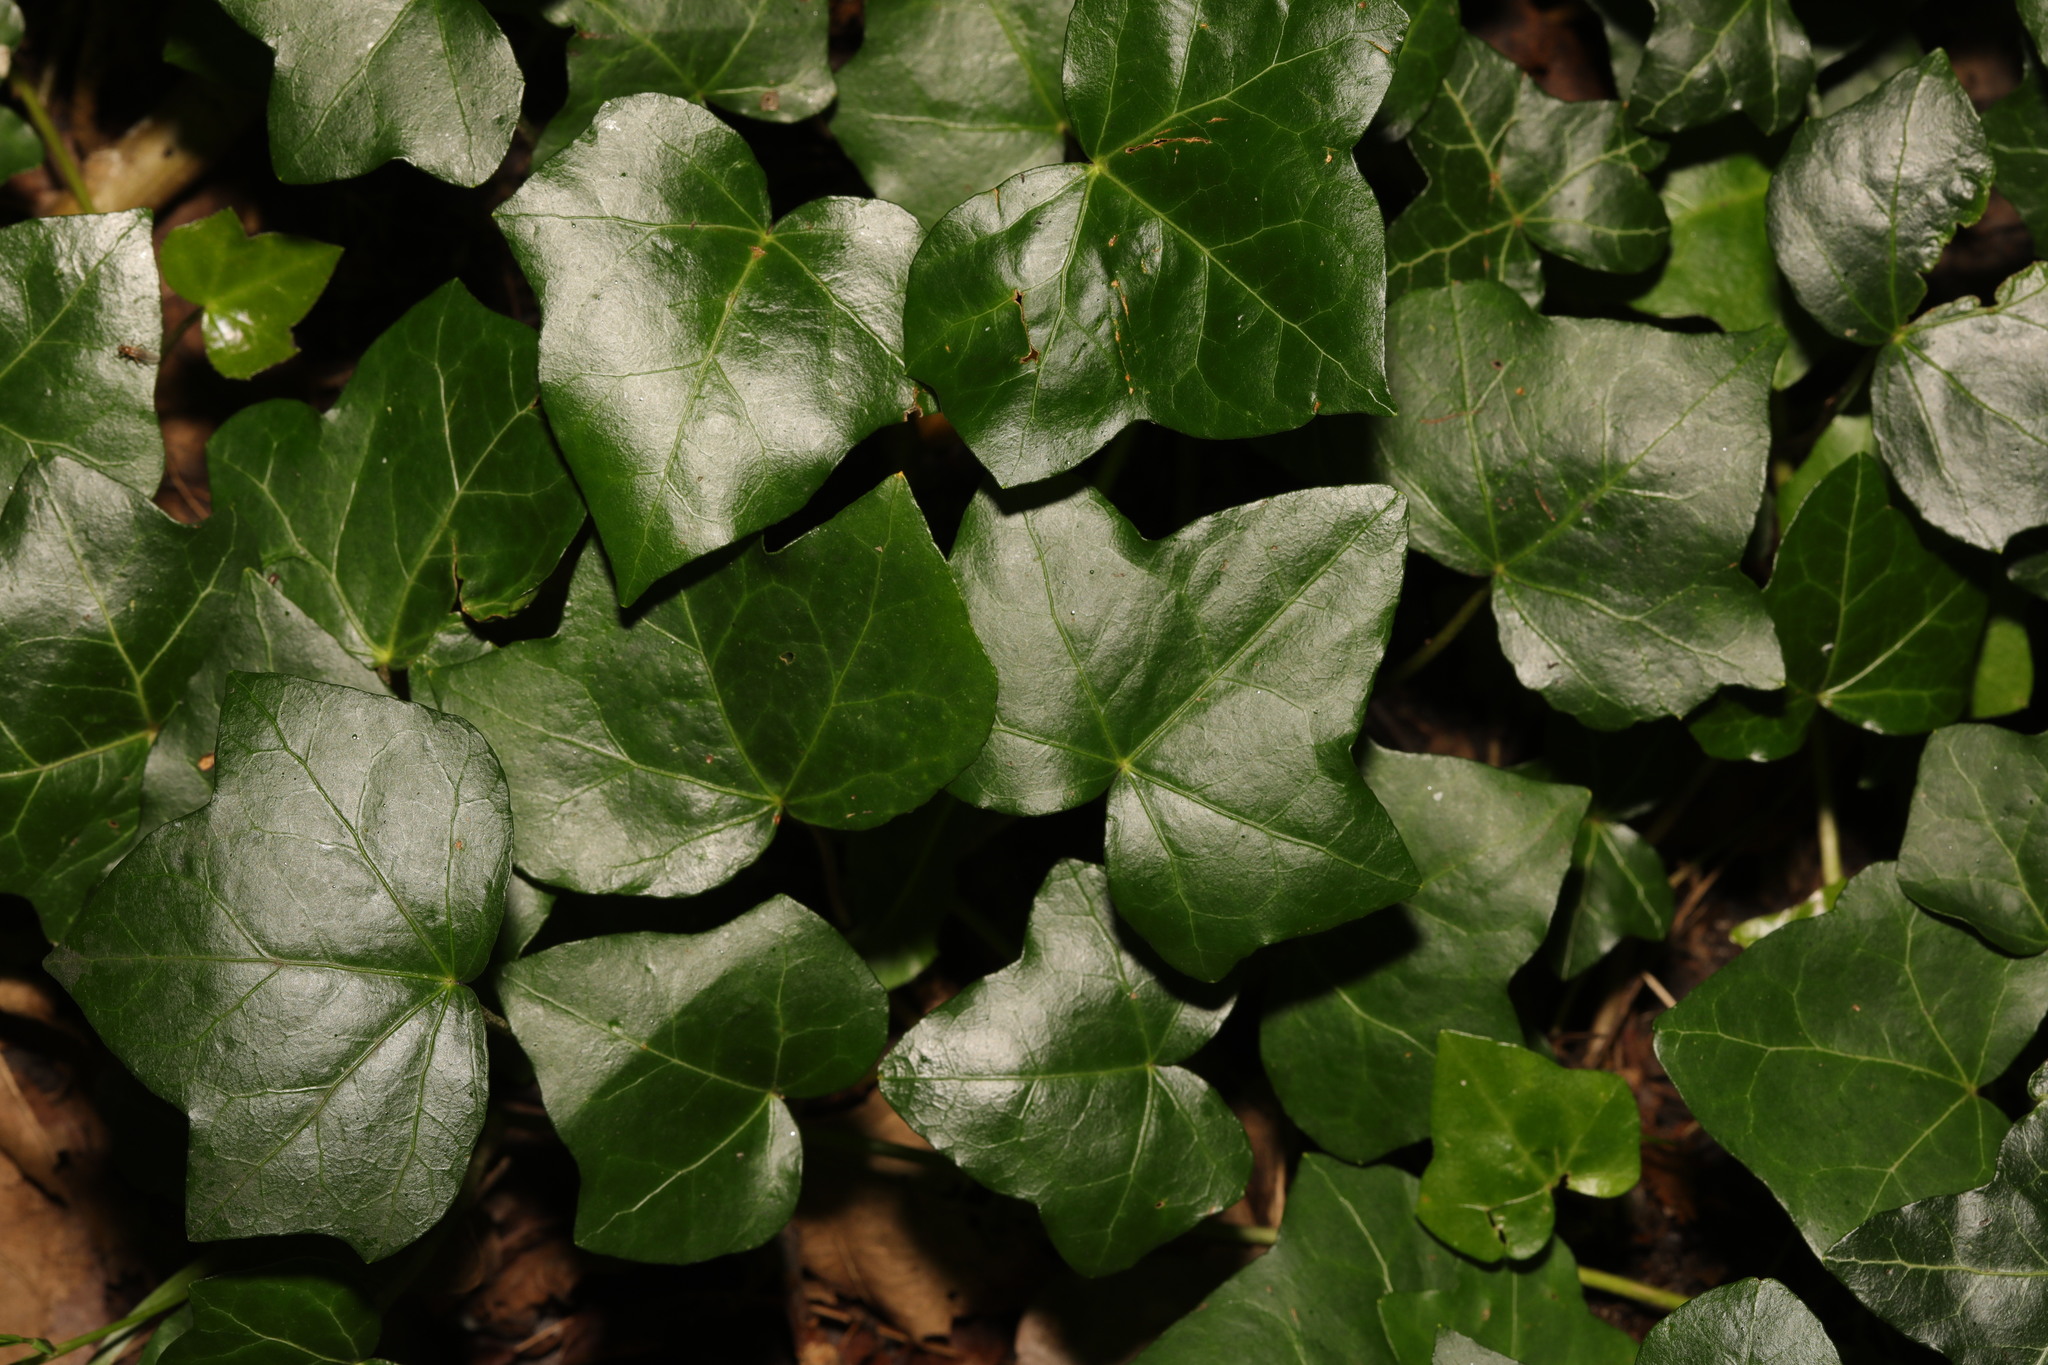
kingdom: Plantae
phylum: Tracheophyta
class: Magnoliopsida
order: Apiales
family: Araliaceae
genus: Hedera
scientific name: Hedera helix
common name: Ivy
